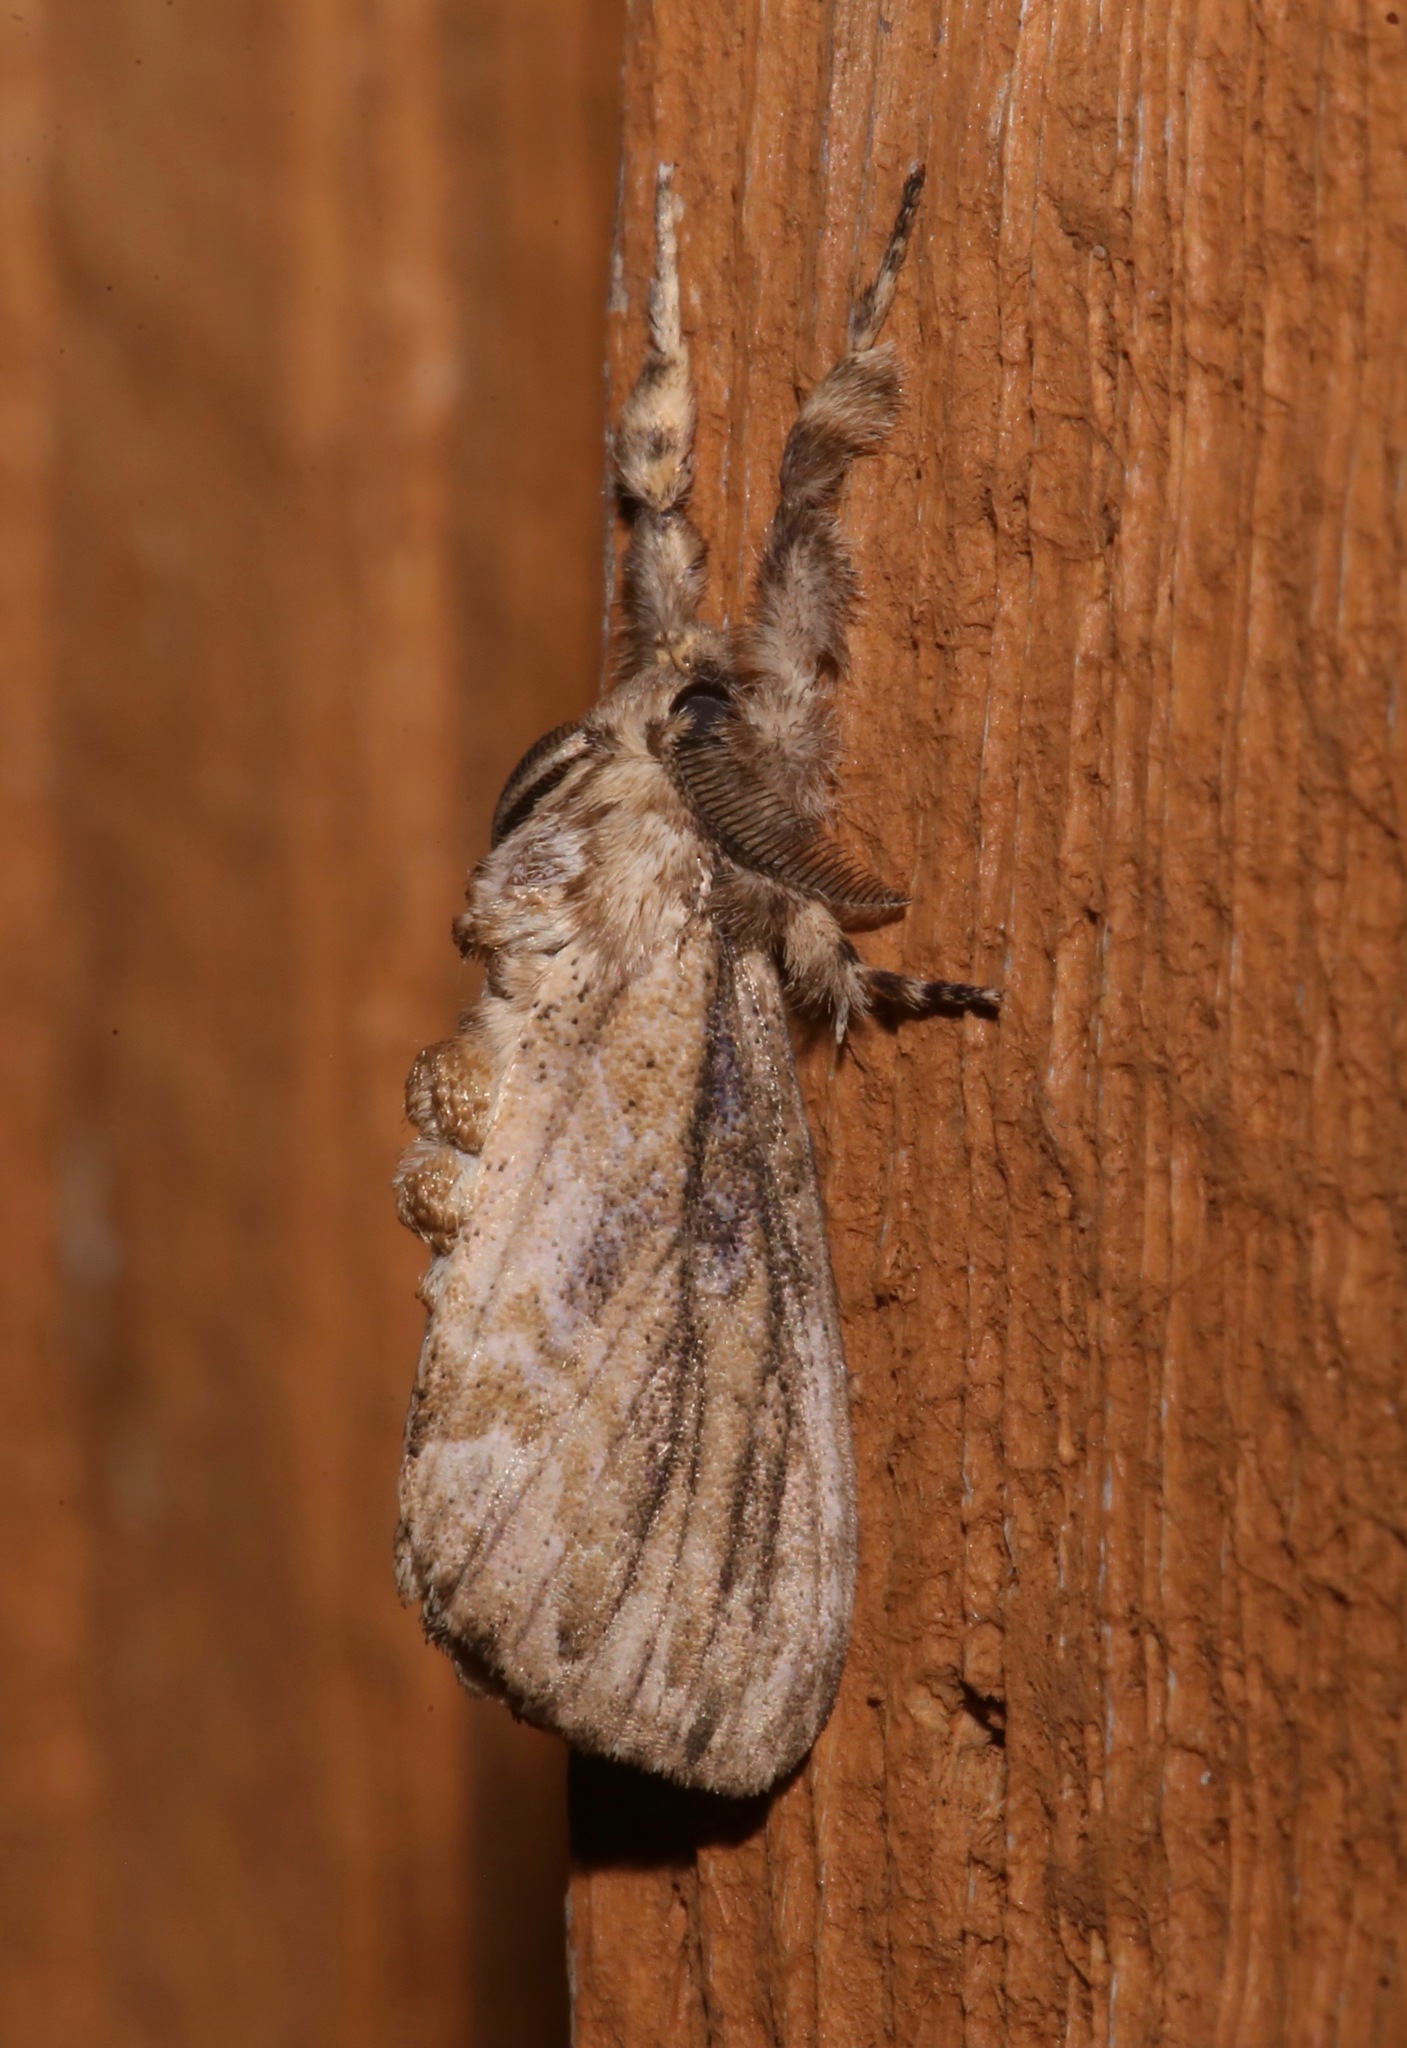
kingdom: Animalia
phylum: Arthropoda
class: Insecta
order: Lepidoptera
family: Erebidae
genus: Dasychira
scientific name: Dasychira atrivenosa
